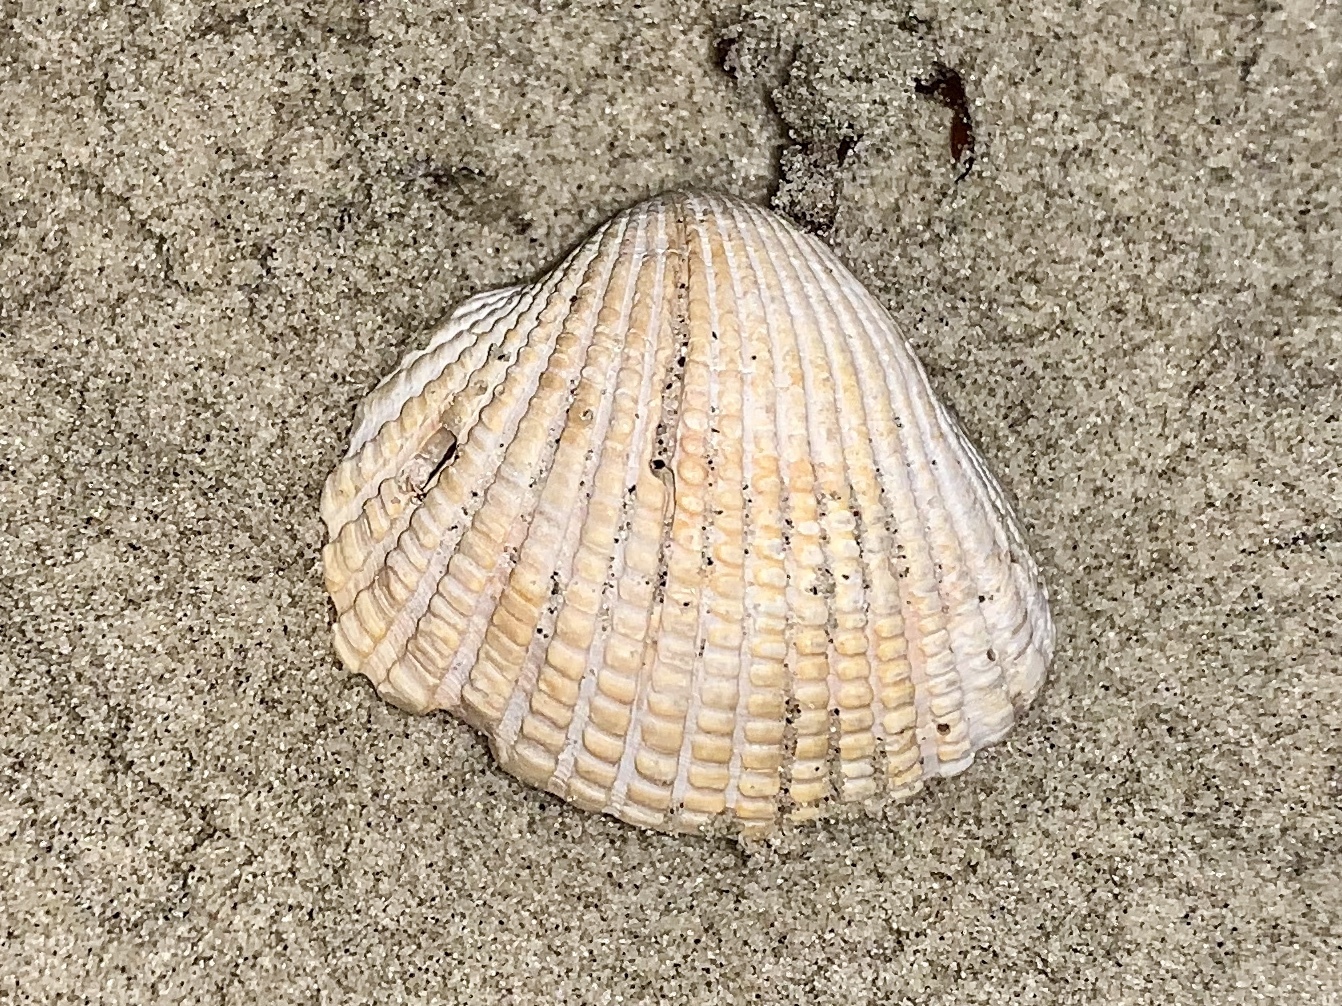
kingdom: Animalia
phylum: Mollusca
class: Bivalvia
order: Arcida
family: Arcidae
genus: Anadara
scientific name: Anadara brasiliana
